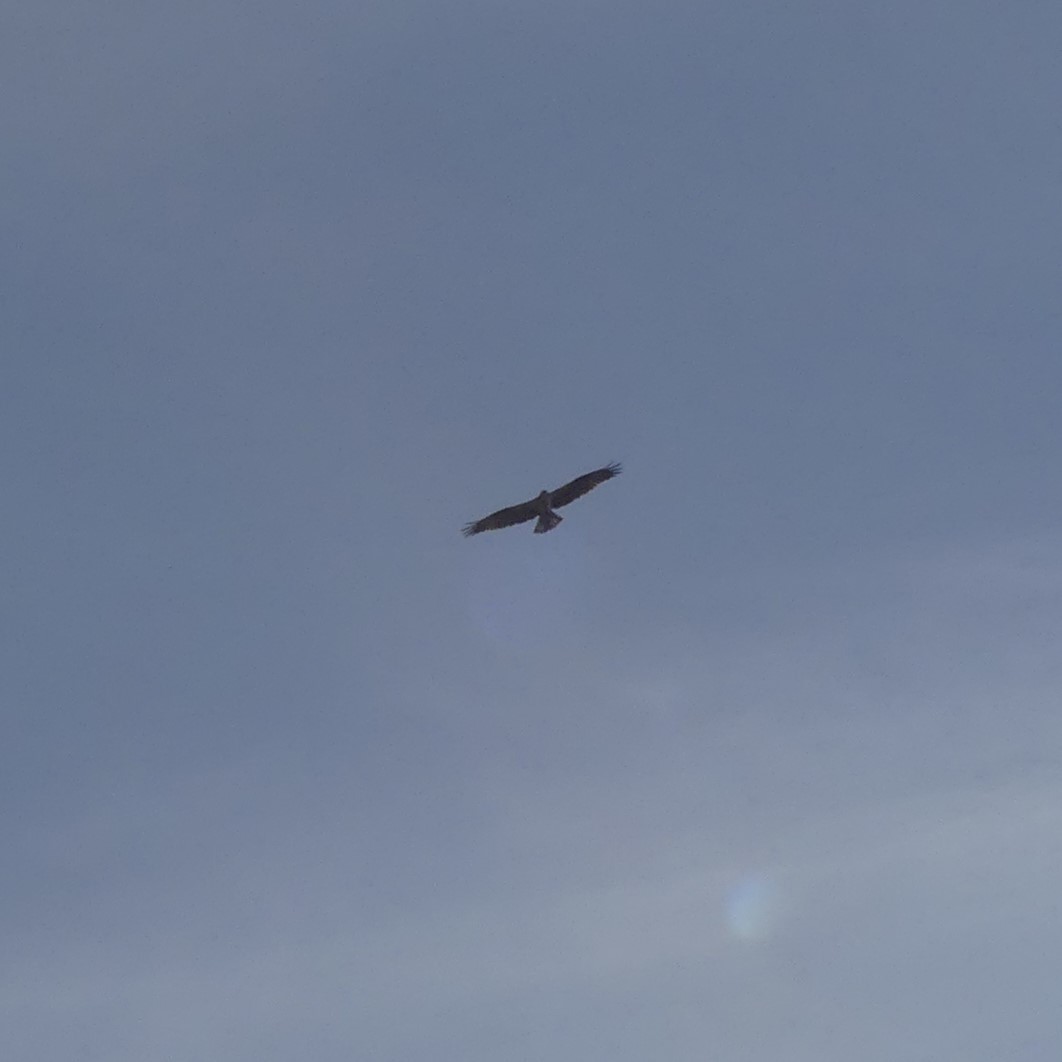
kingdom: Animalia
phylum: Chordata
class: Aves
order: Accipitriformes
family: Pandionidae
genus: Pandion
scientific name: Pandion haliaetus
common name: Osprey
